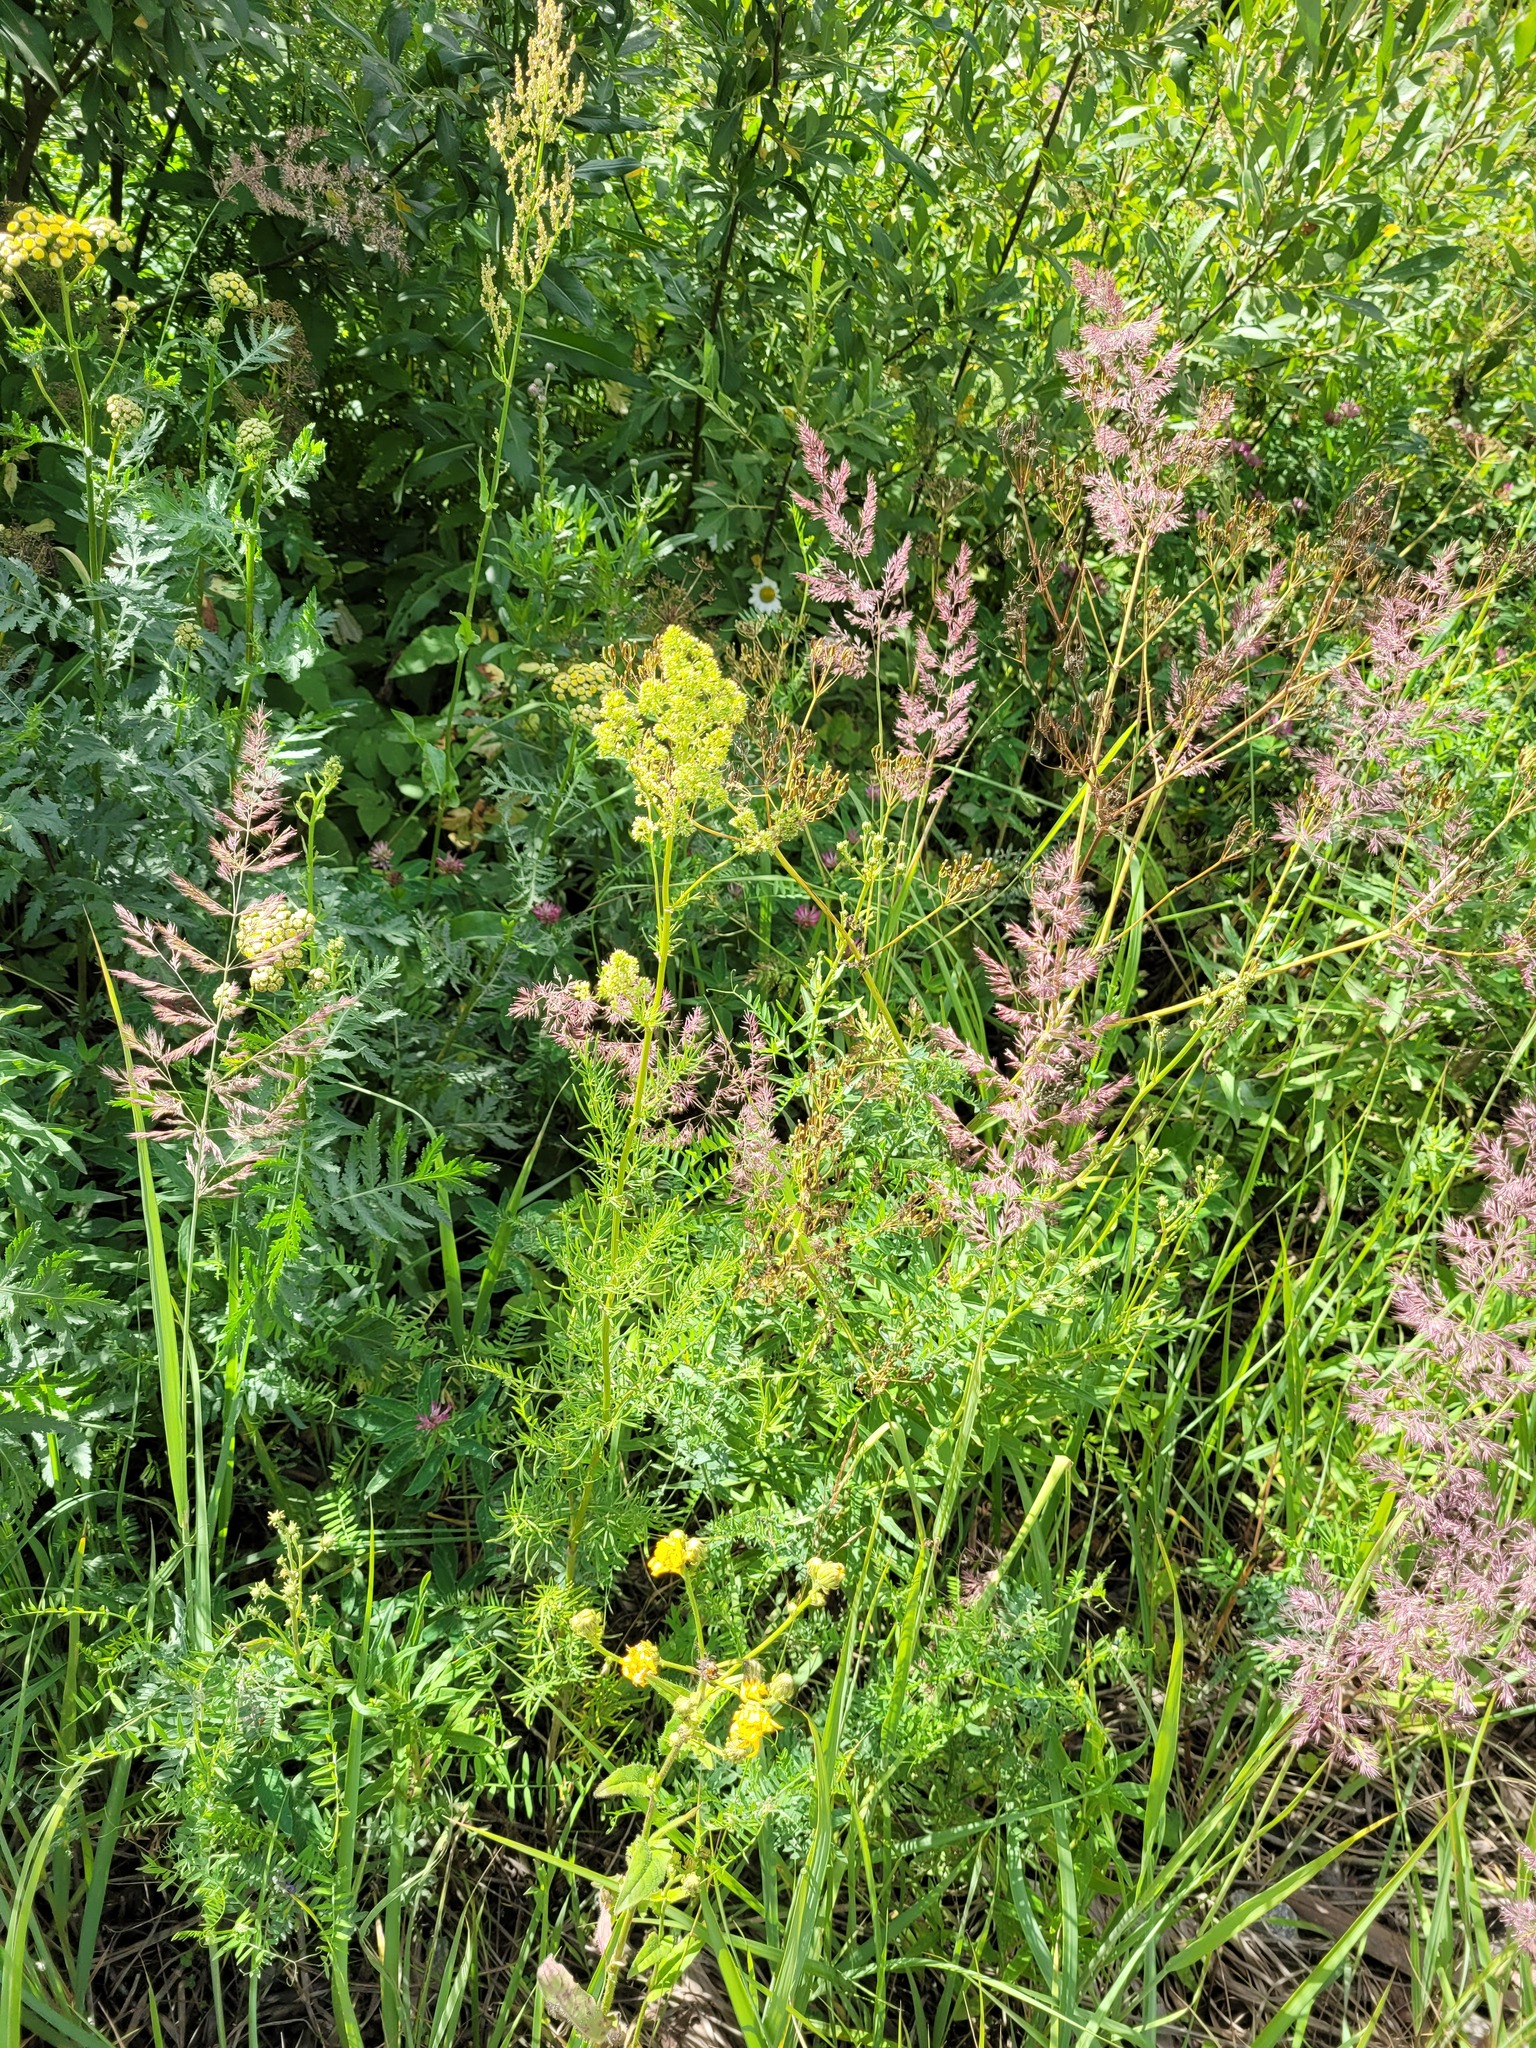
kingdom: Plantae
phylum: Tracheophyta
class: Magnoliopsida
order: Ranunculales
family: Ranunculaceae
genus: Thalictrum
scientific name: Thalictrum lucidum
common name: Shining meadow-rue
